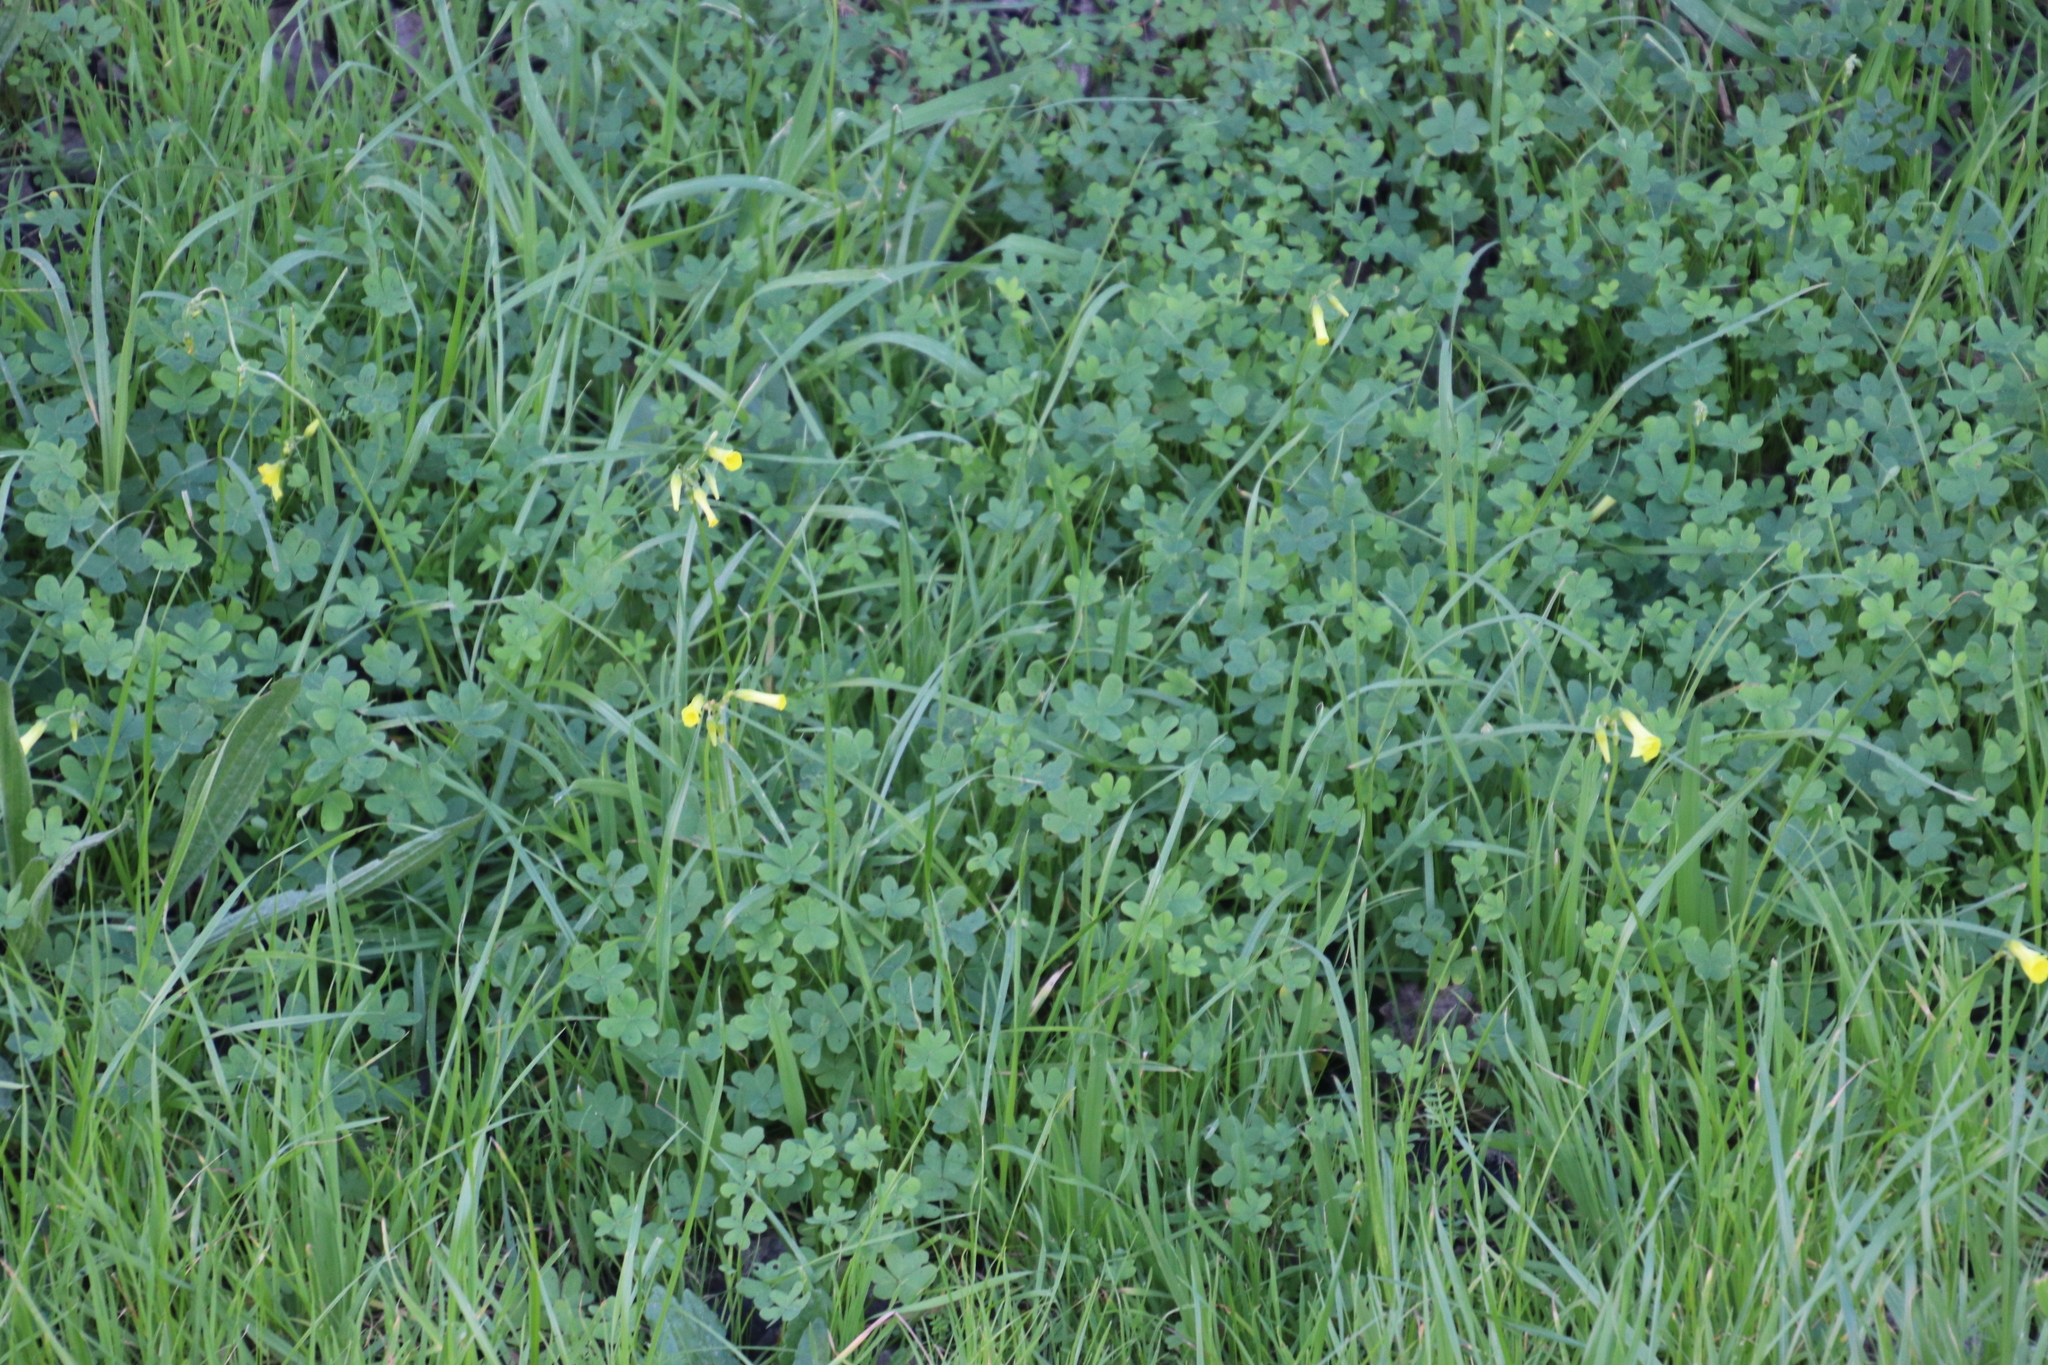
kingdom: Plantae
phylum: Tracheophyta
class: Magnoliopsida
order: Oxalidales
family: Oxalidaceae
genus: Oxalis
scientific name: Oxalis pes-caprae
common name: Bermuda-buttercup
